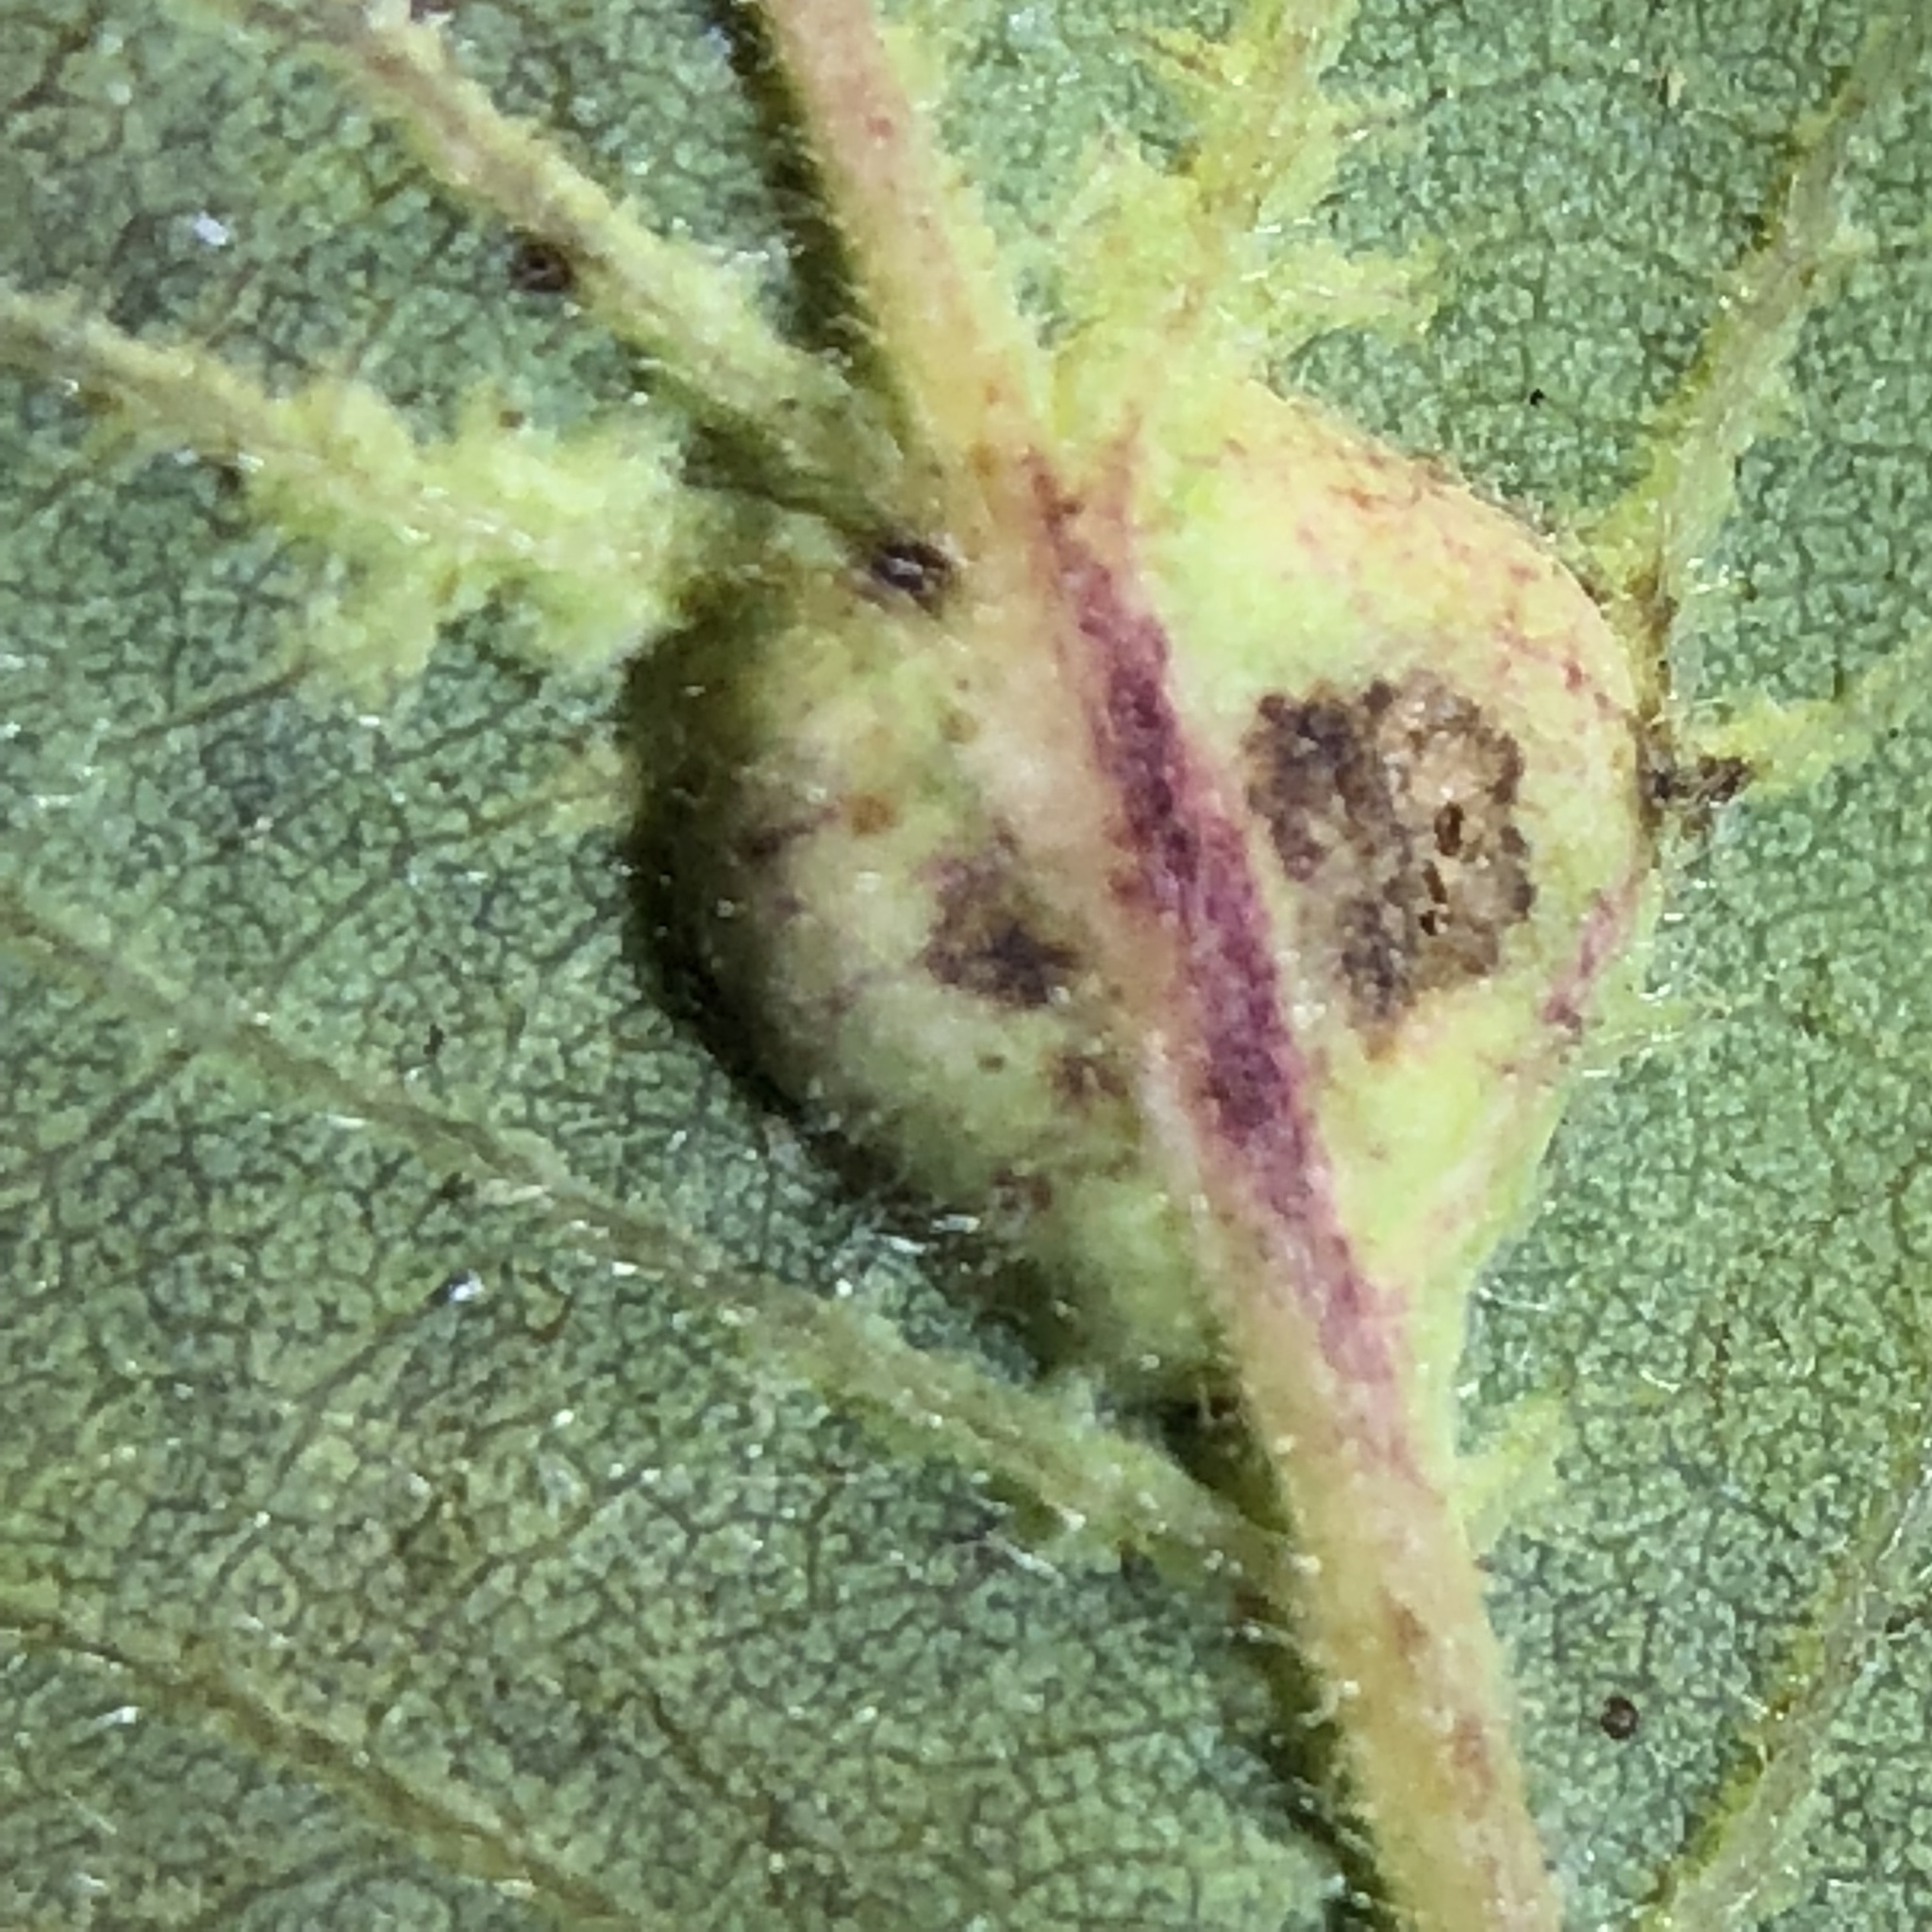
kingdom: Animalia
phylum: Arthropoda
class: Insecta
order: Hymenoptera
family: Cynipidae
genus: Diplolepis
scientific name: Diplolepis
